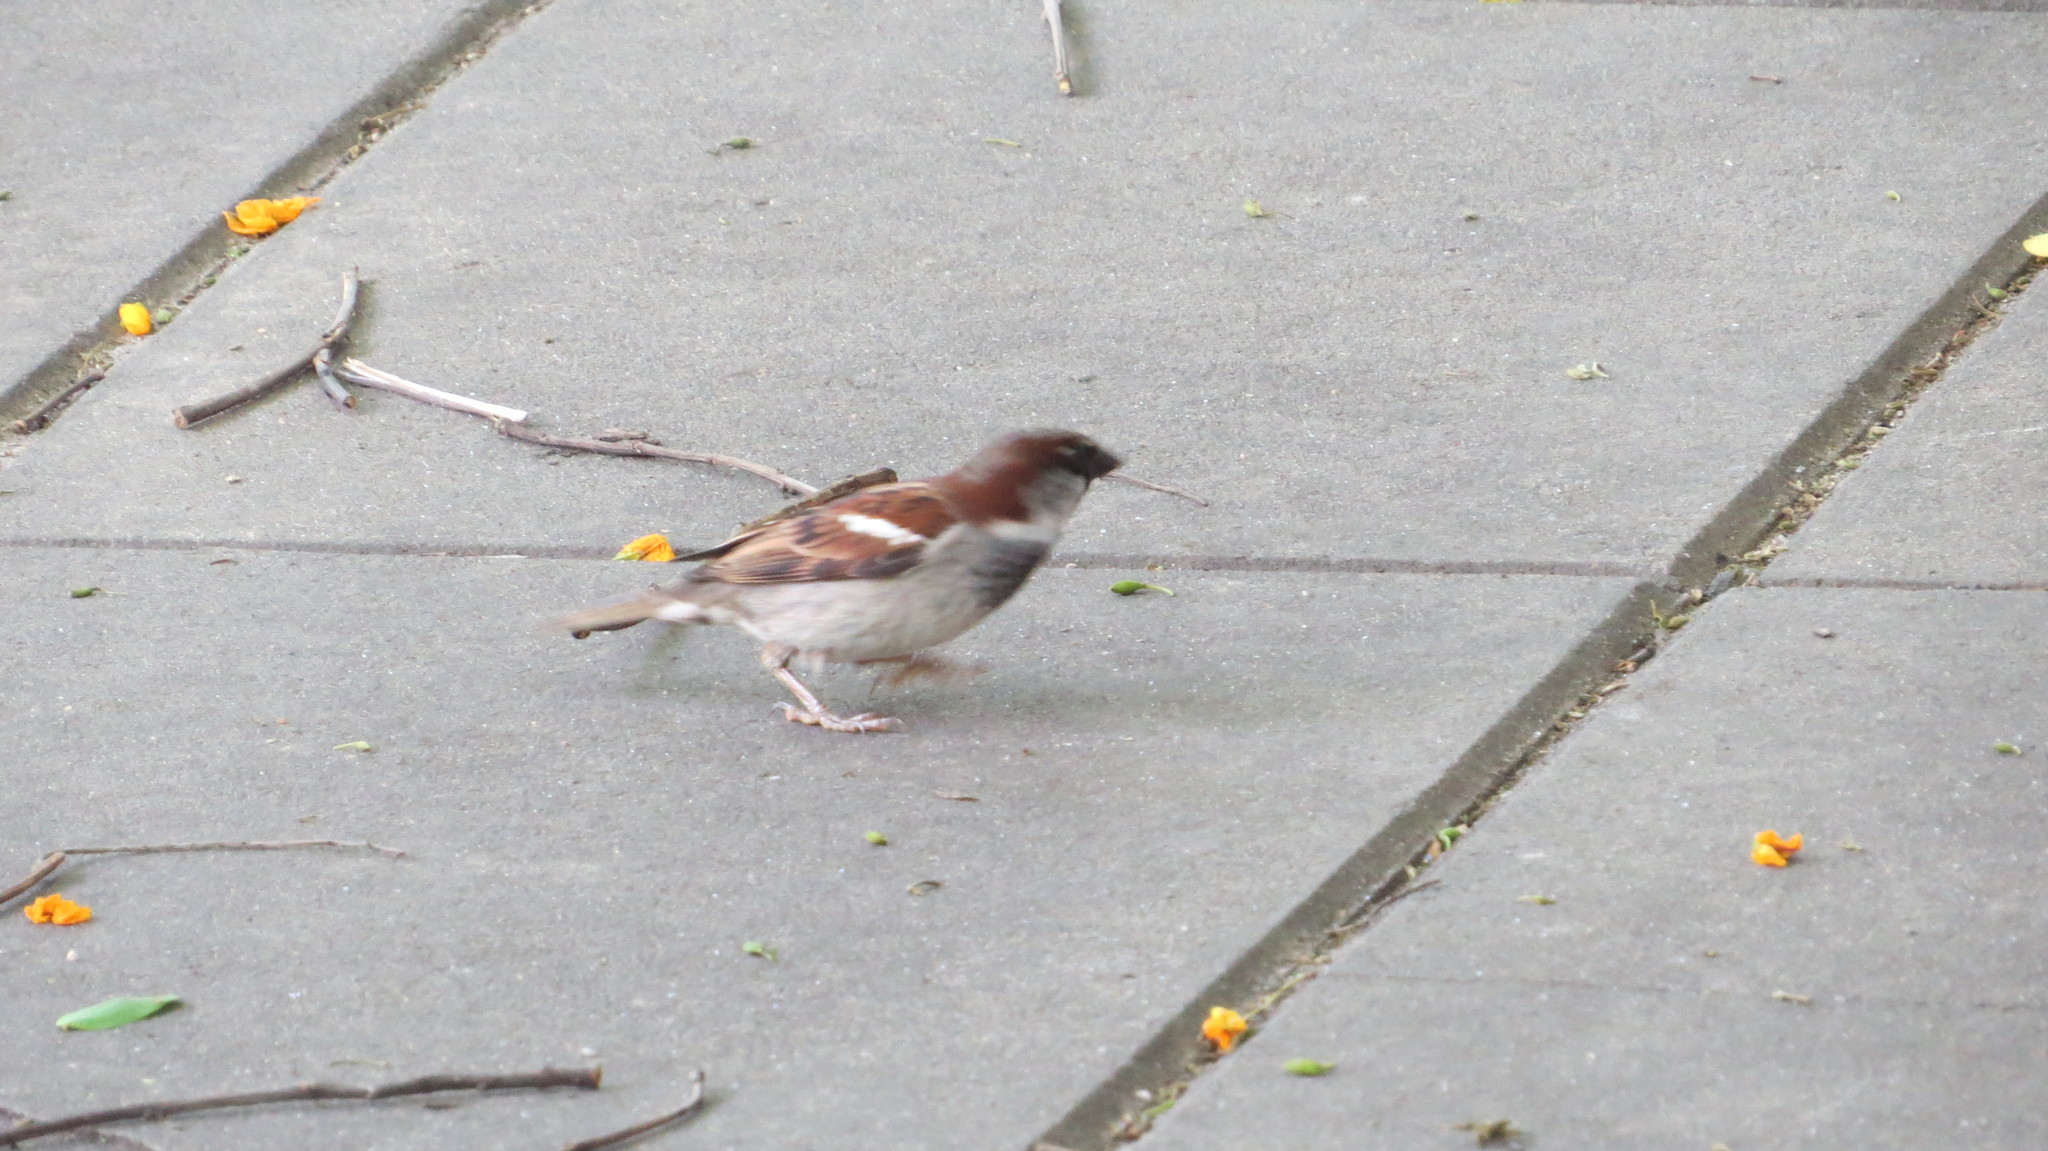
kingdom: Animalia
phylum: Chordata
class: Aves
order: Passeriformes
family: Passeridae
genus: Passer
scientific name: Passer domesticus
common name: House sparrow
